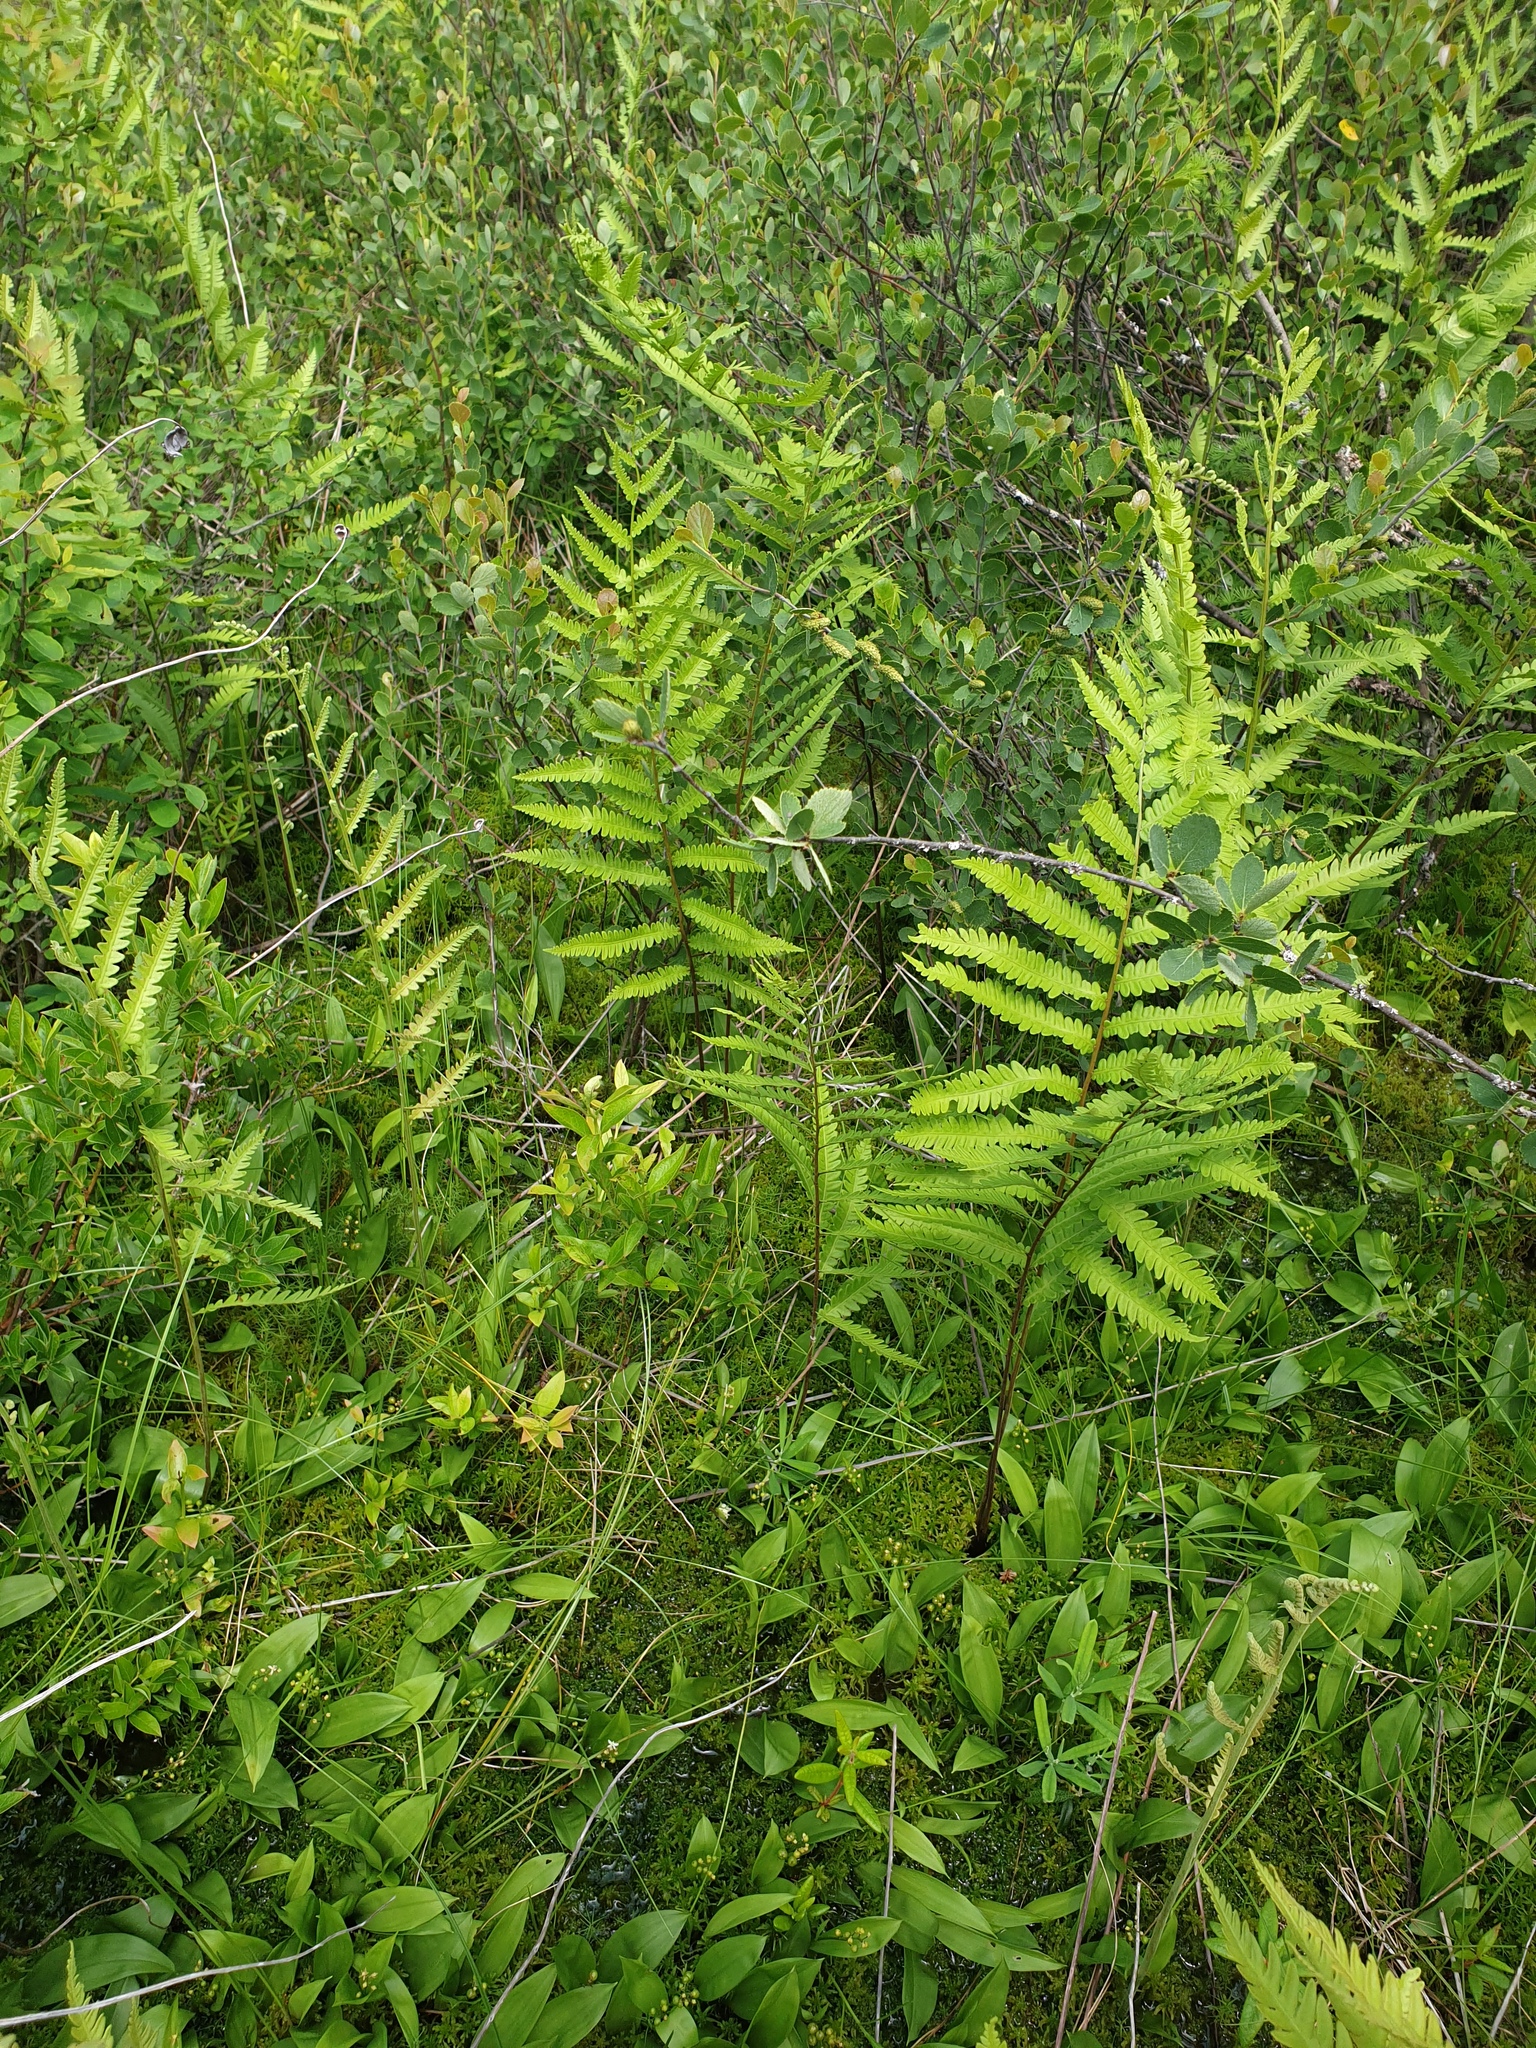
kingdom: Plantae
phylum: Tracheophyta
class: Liliopsida
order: Asparagales
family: Asparagaceae
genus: Maianthemum
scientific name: Maianthemum trifolium
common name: Swamp false solomon's seal
